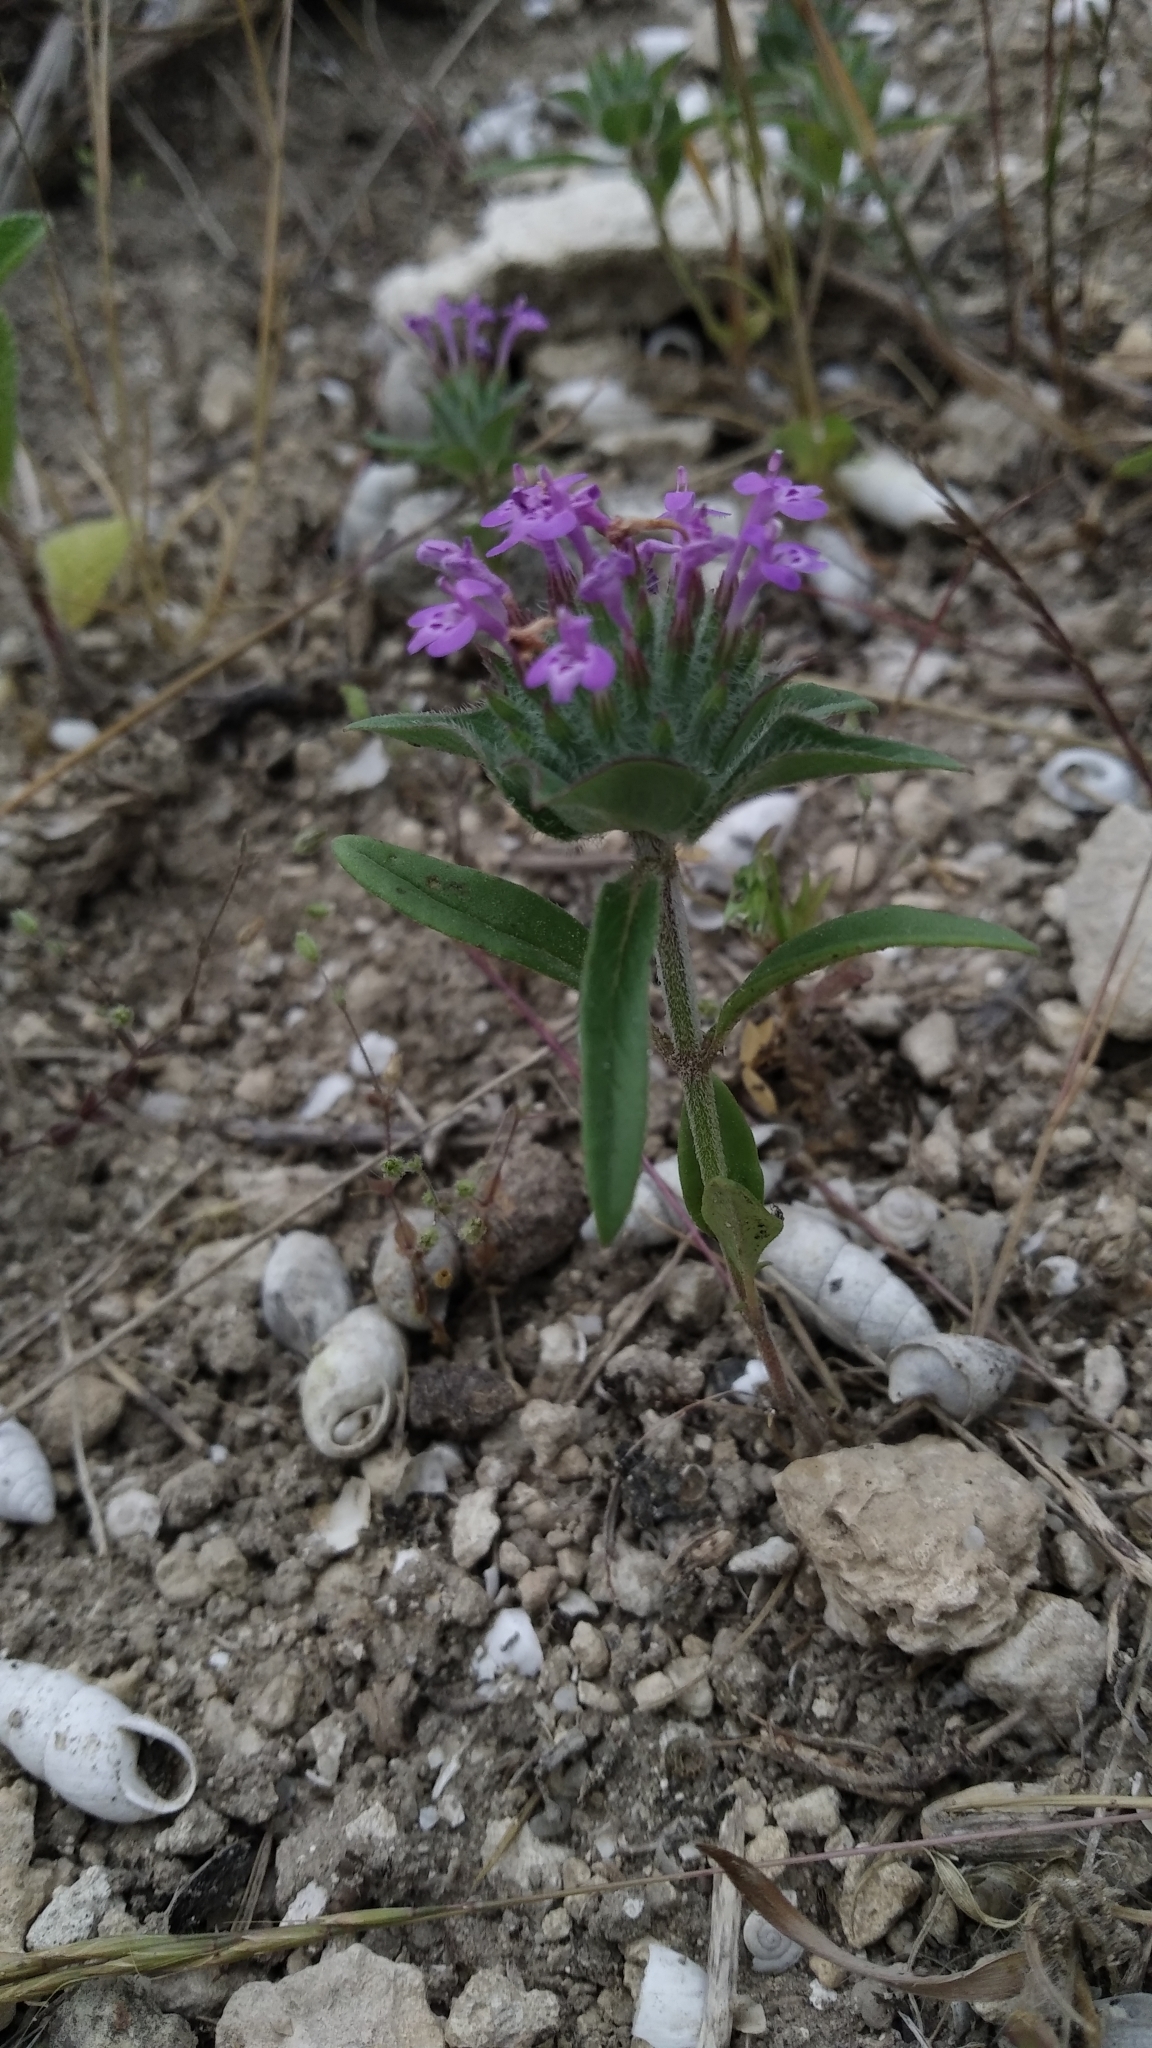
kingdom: Plantae
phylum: Tracheophyta
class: Magnoliopsida
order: Lamiales
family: Lamiaceae
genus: Ziziphora
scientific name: Ziziphora capitata
